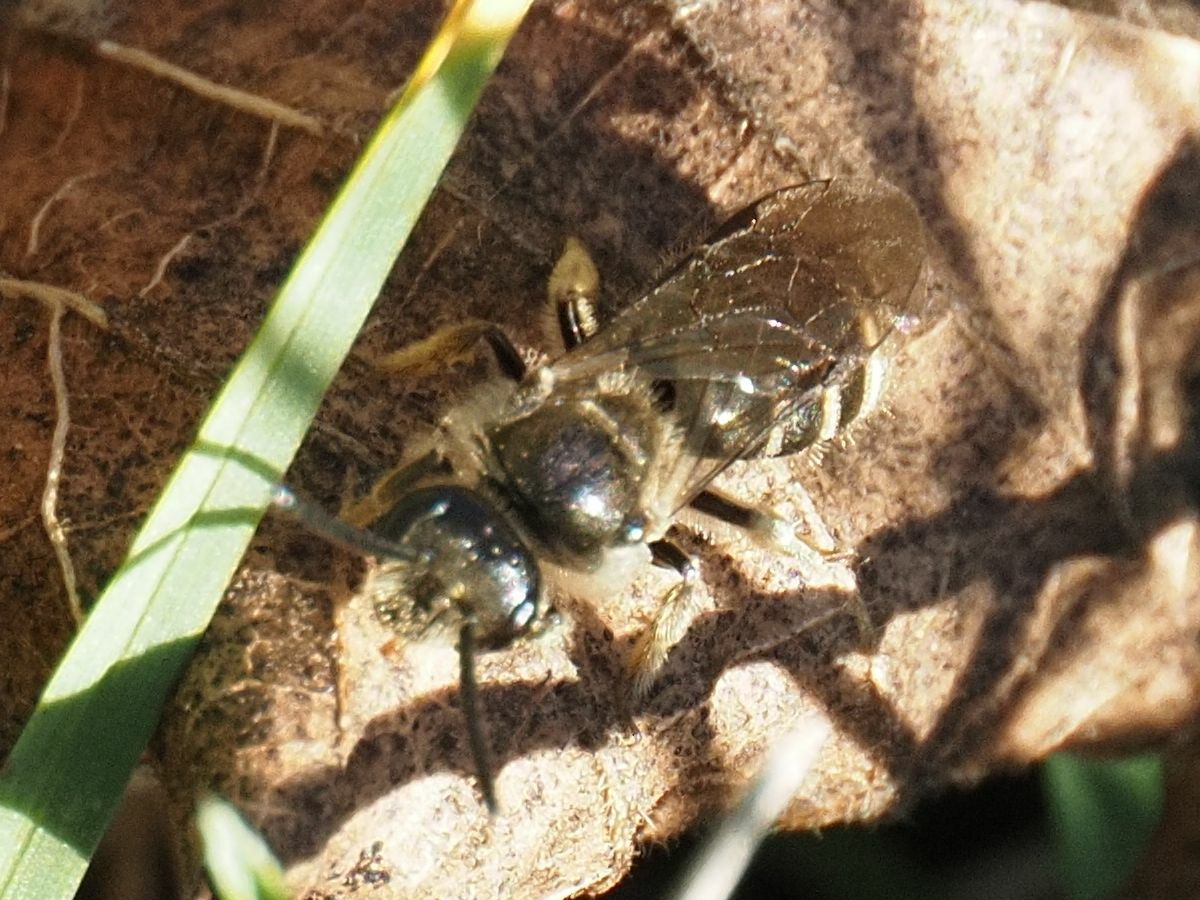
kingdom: Animalia
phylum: Arthropoda
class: Insecta
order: Hymenoptera
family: Halictidae
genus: Lasioglossum
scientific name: Lasioglossum marginatum
